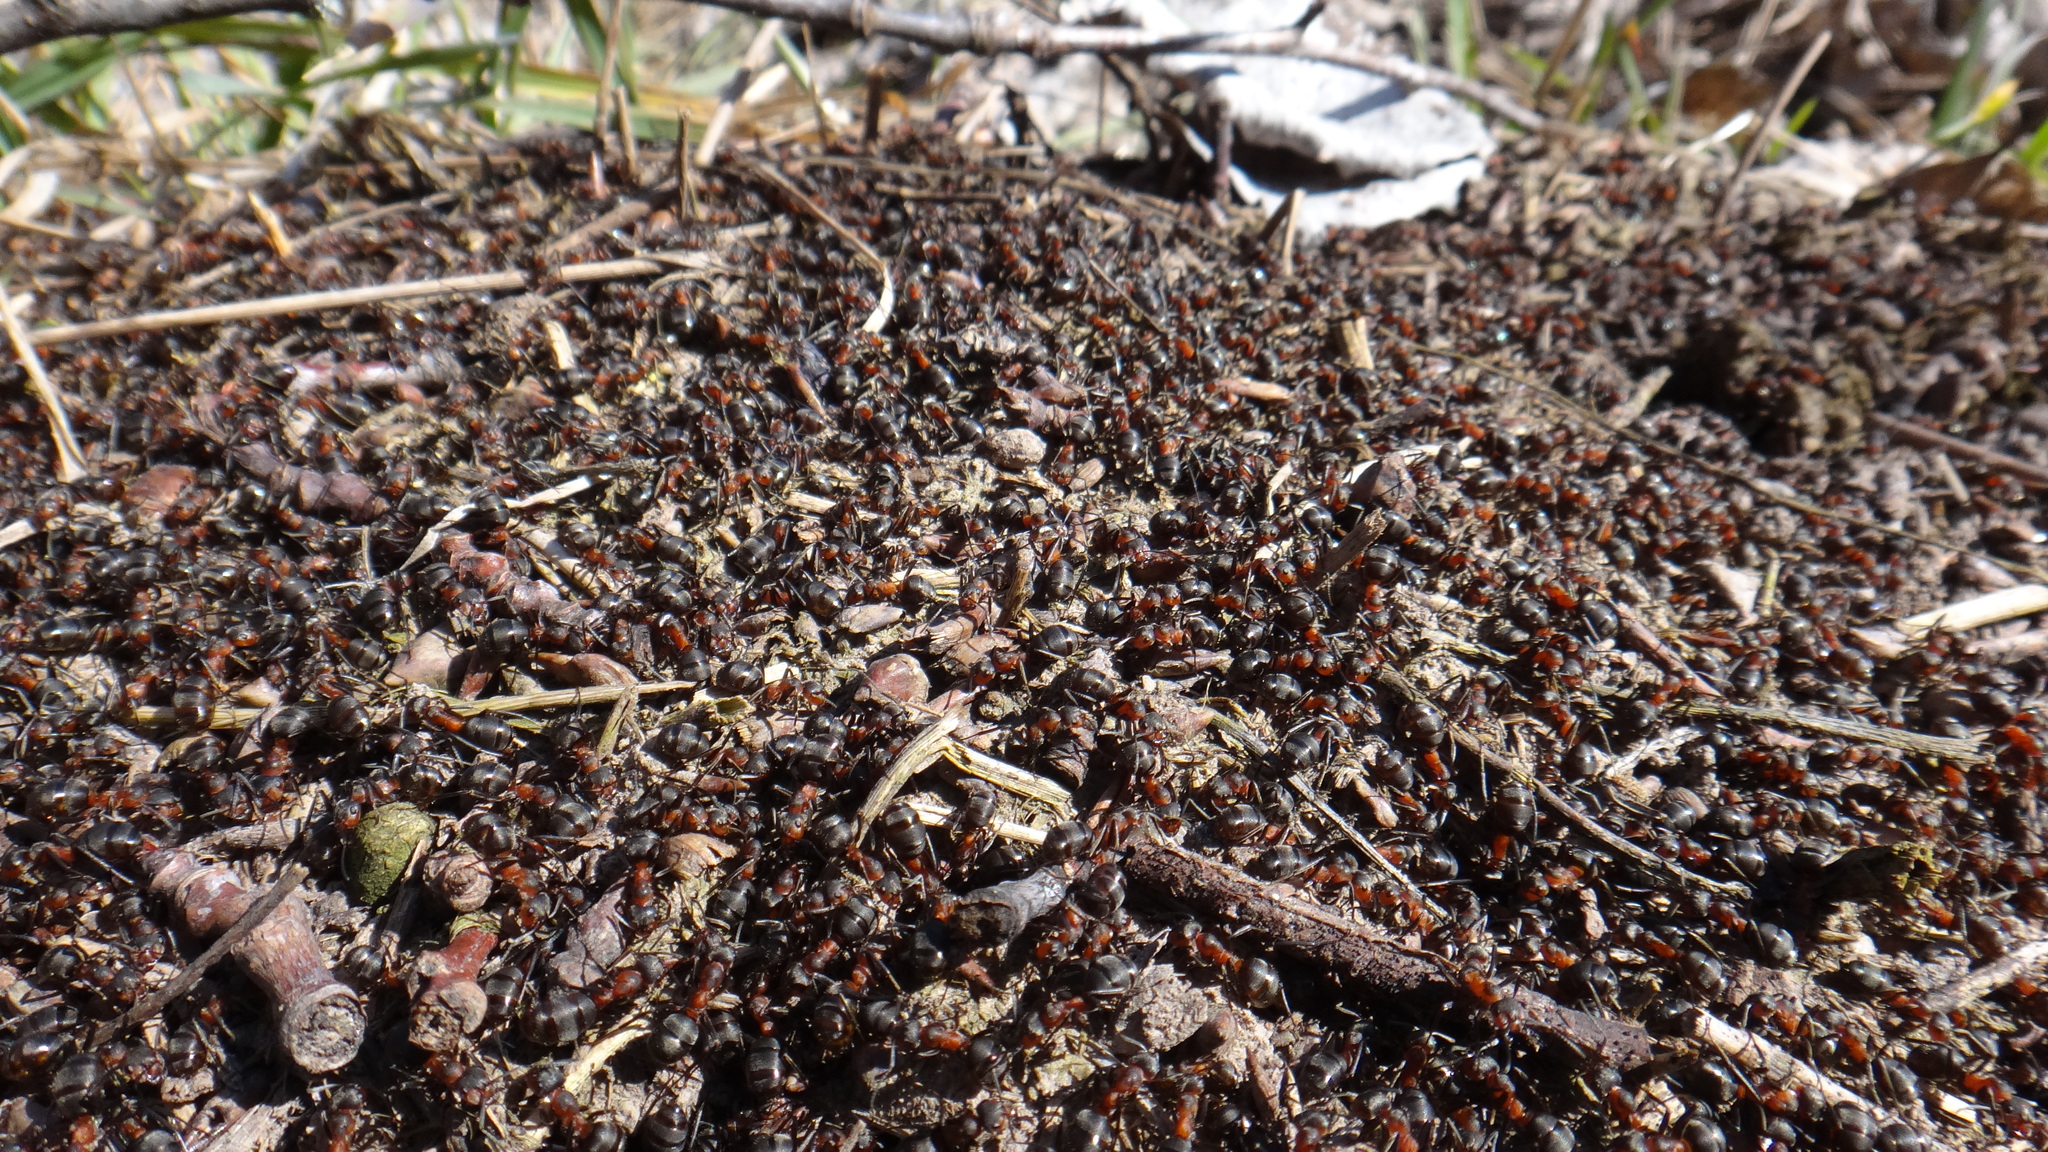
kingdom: Animalia
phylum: Arthropoda
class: Insecta
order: Hymenoptera
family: Formicidae
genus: Formica
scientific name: Formica pratensis
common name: European red wood ant
